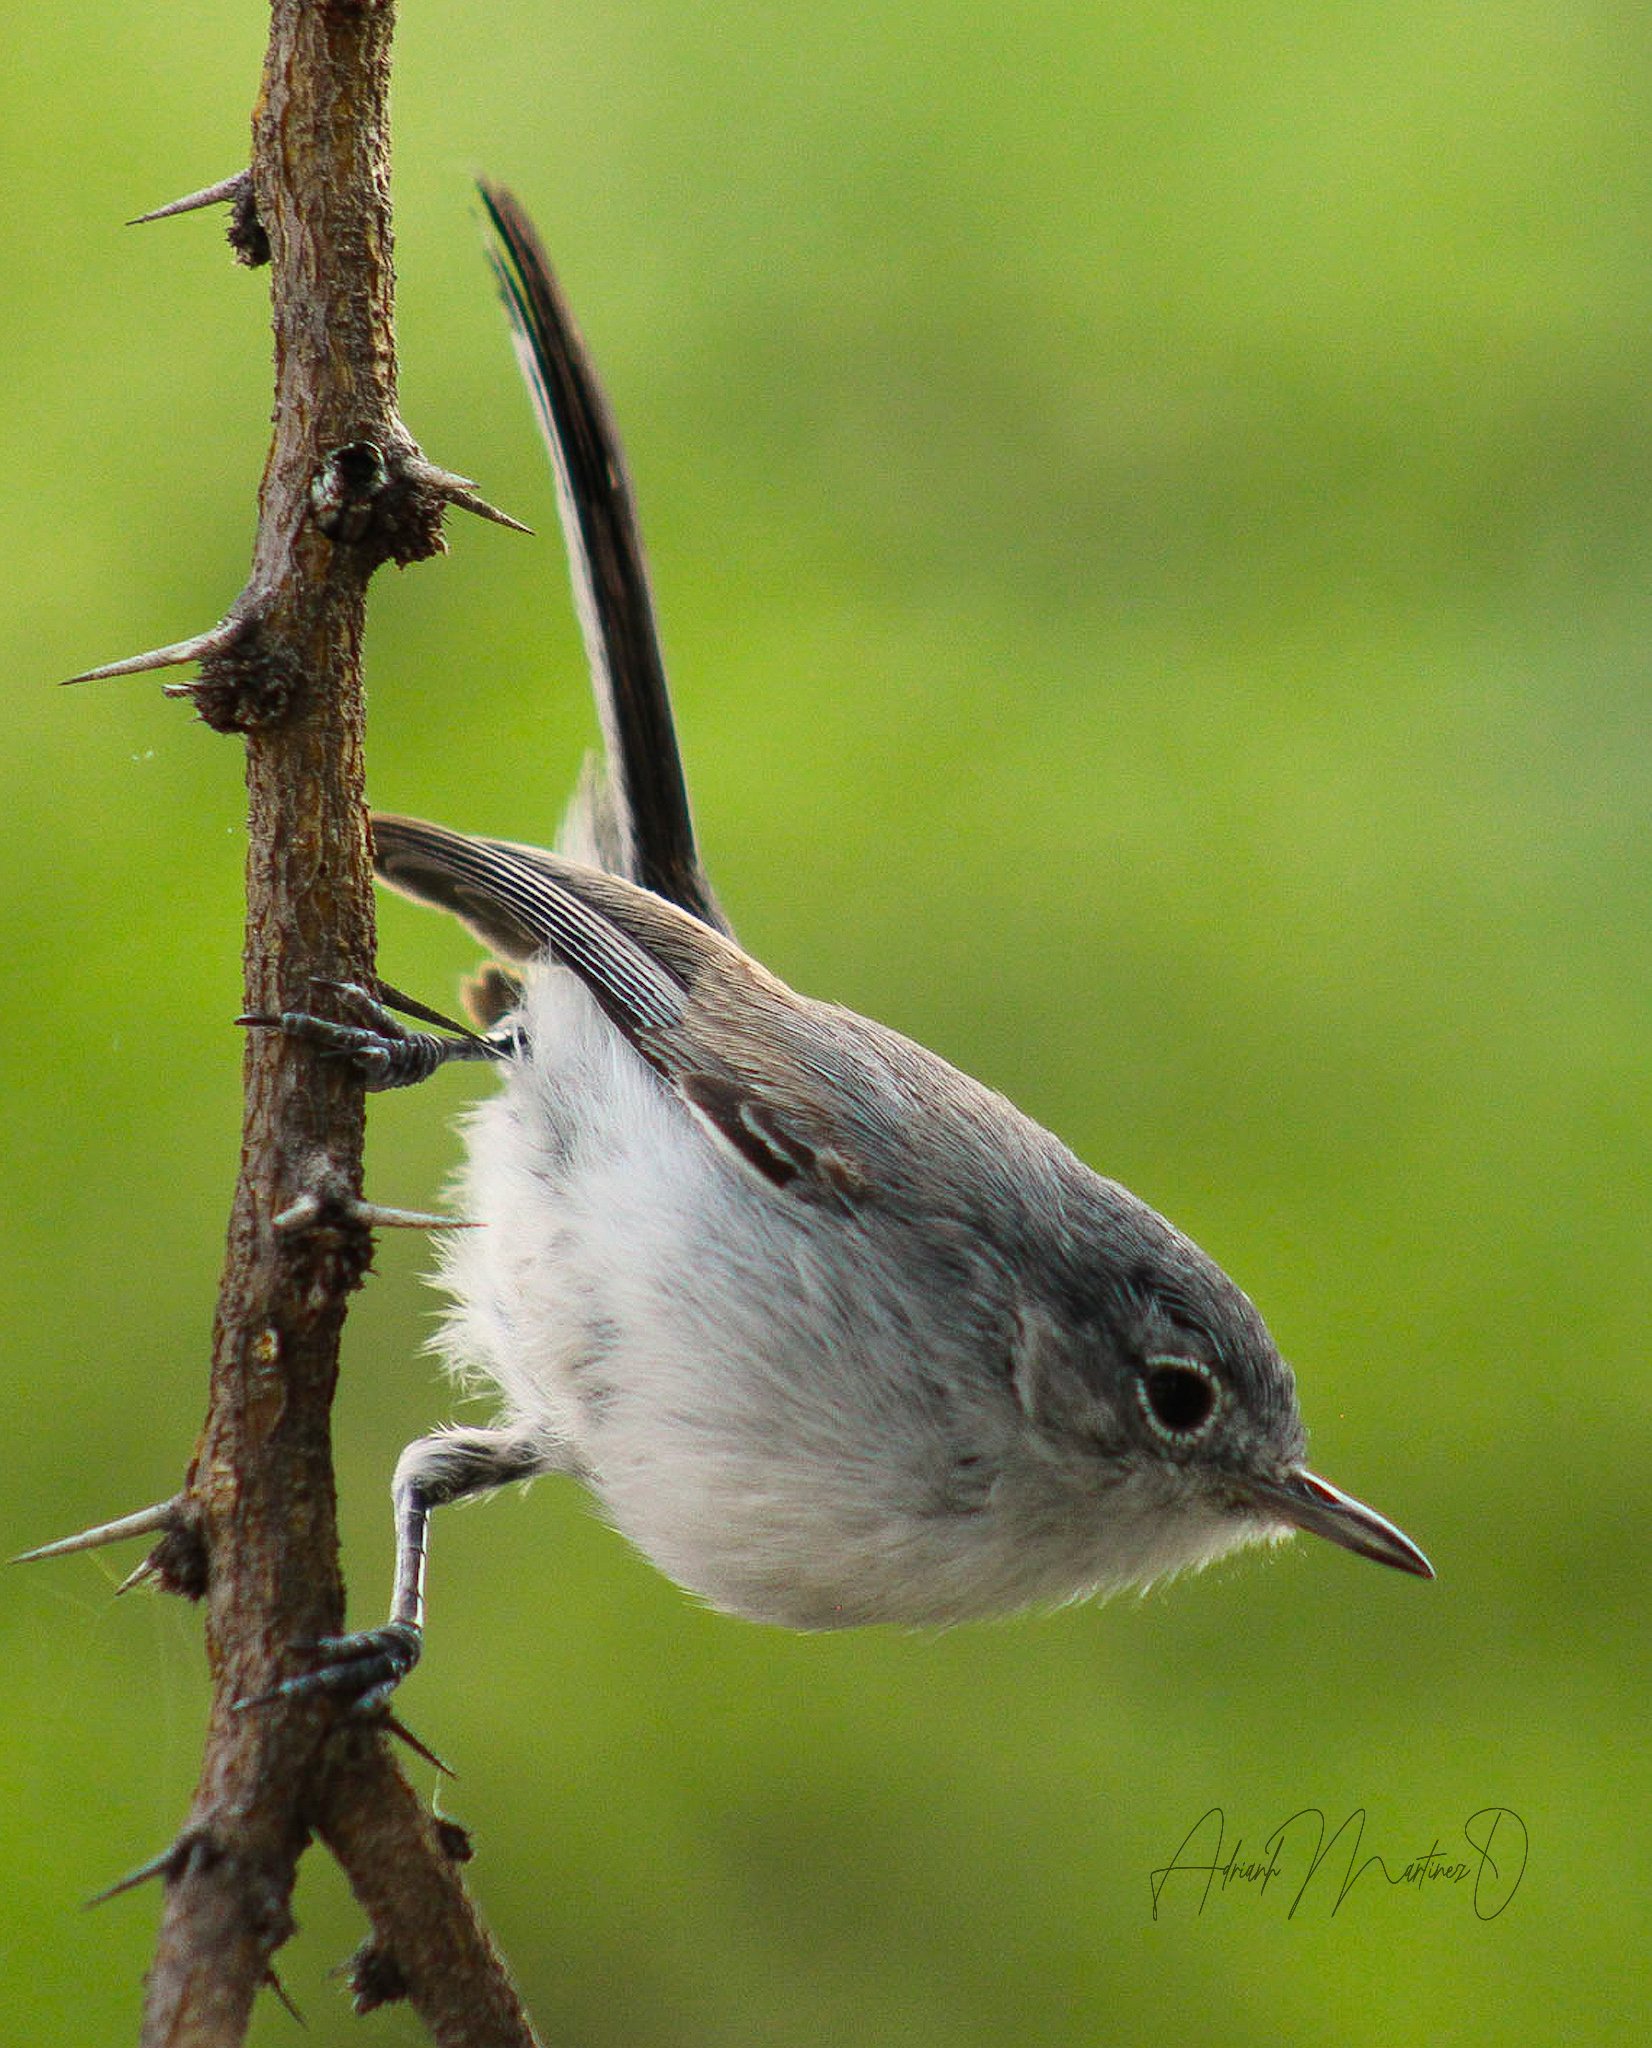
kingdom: Animalia
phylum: Chordata
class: Aves
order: Passeriformes
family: Polioptilidae
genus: Polioptila
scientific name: Polioptila caerulea
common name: Blue-gray gnatcatcher
